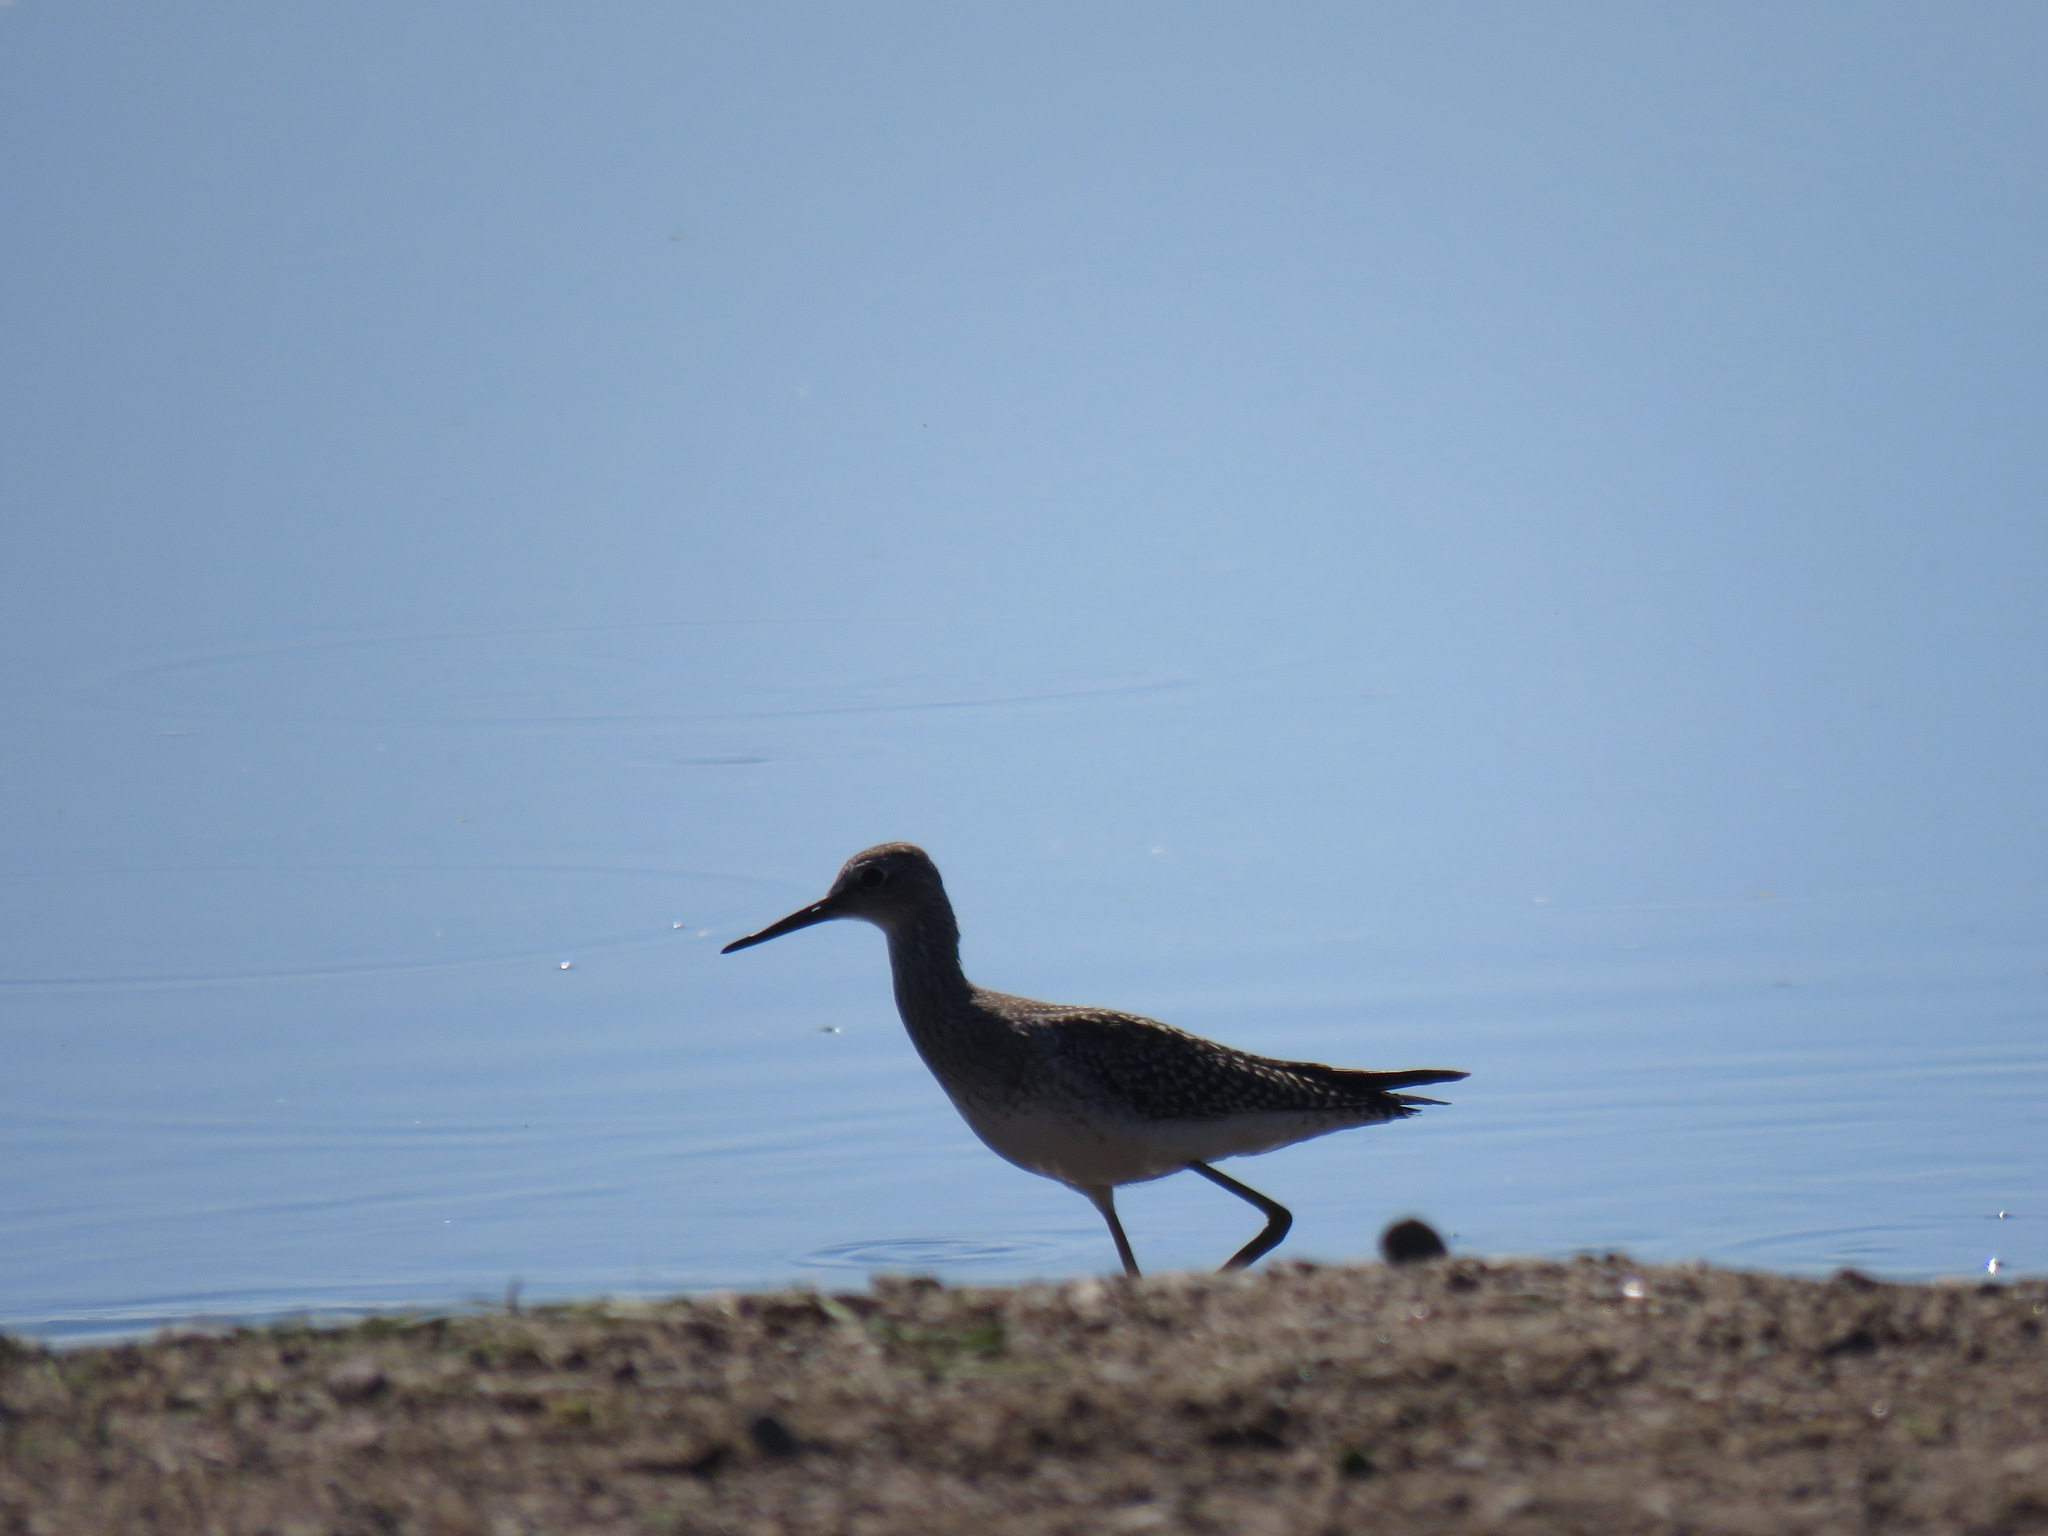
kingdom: Animalia
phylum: Chordata
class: Aves
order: Charadriiformes
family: Scolopacidae
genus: Tringa
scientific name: Tringa melanoleuca
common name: Greater yellowlegs
